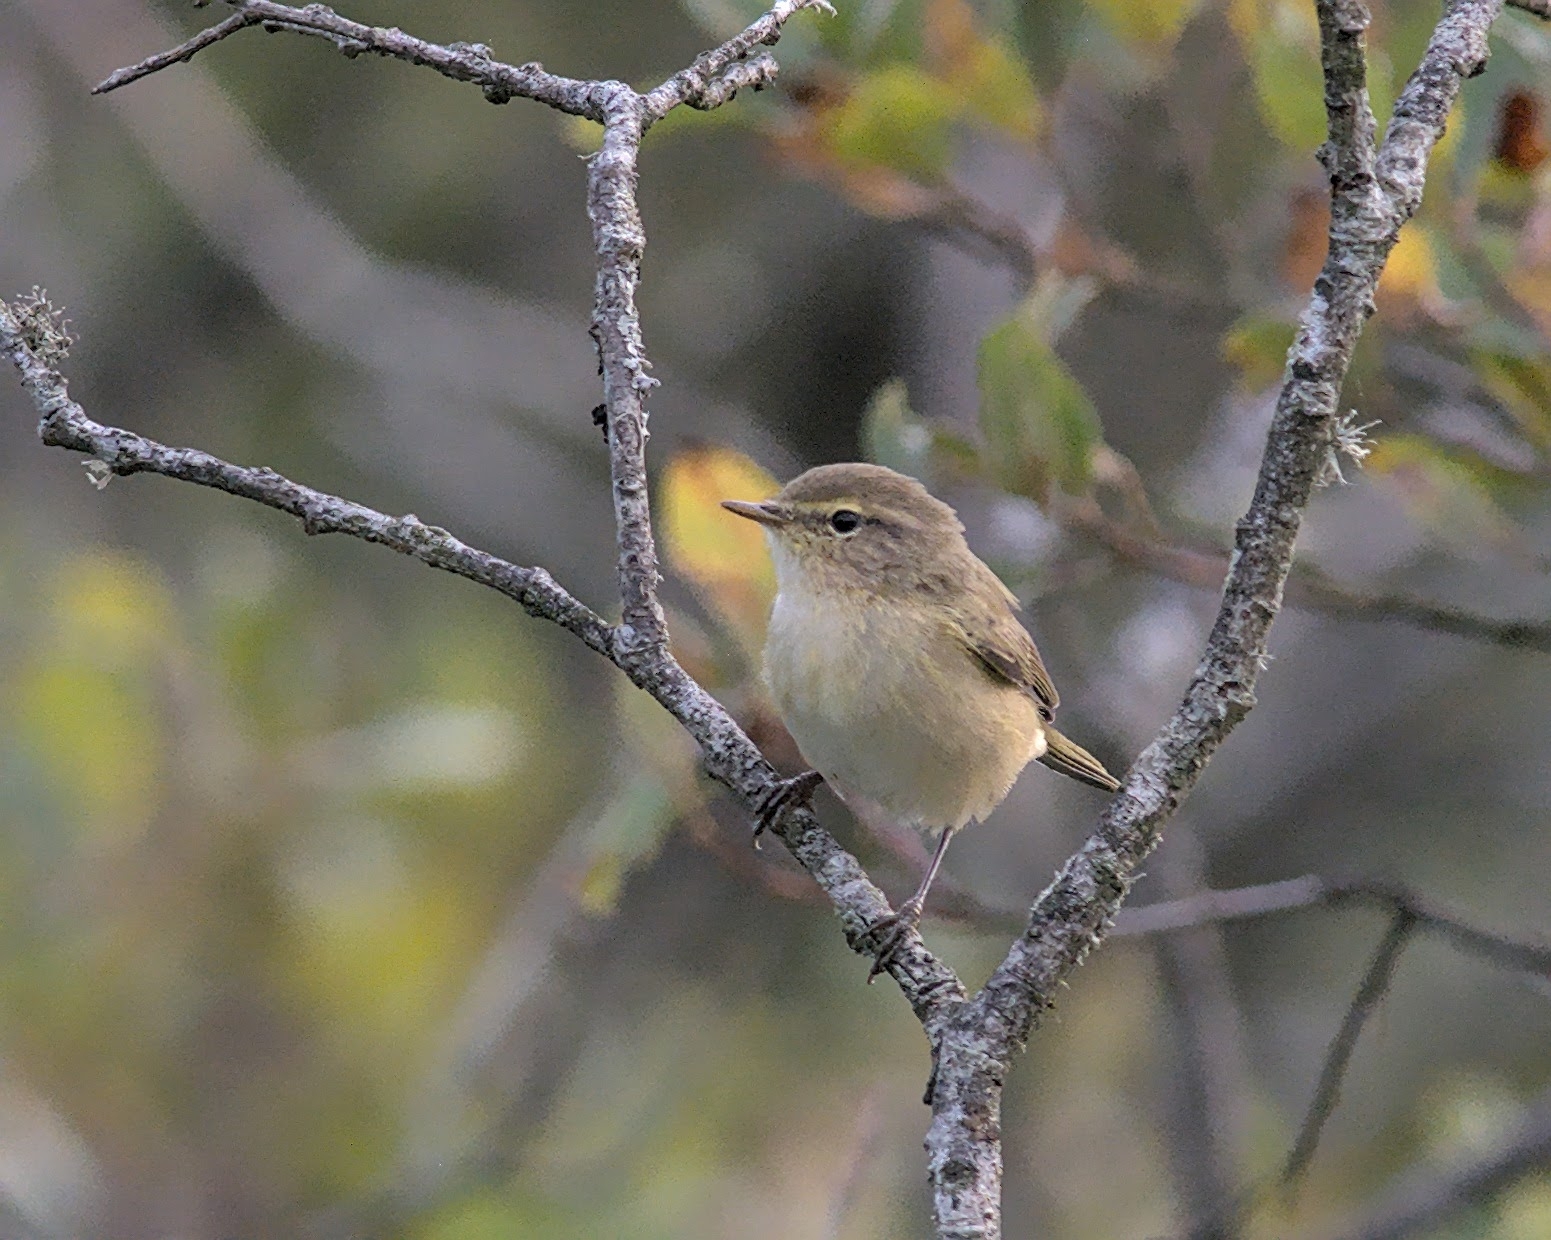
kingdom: Animalia
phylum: Chordata
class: Aves
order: Passeriformes
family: Phylloscopidae
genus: Phylloscopus
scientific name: Phylloscopus collybita
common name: Common chiffchaff
